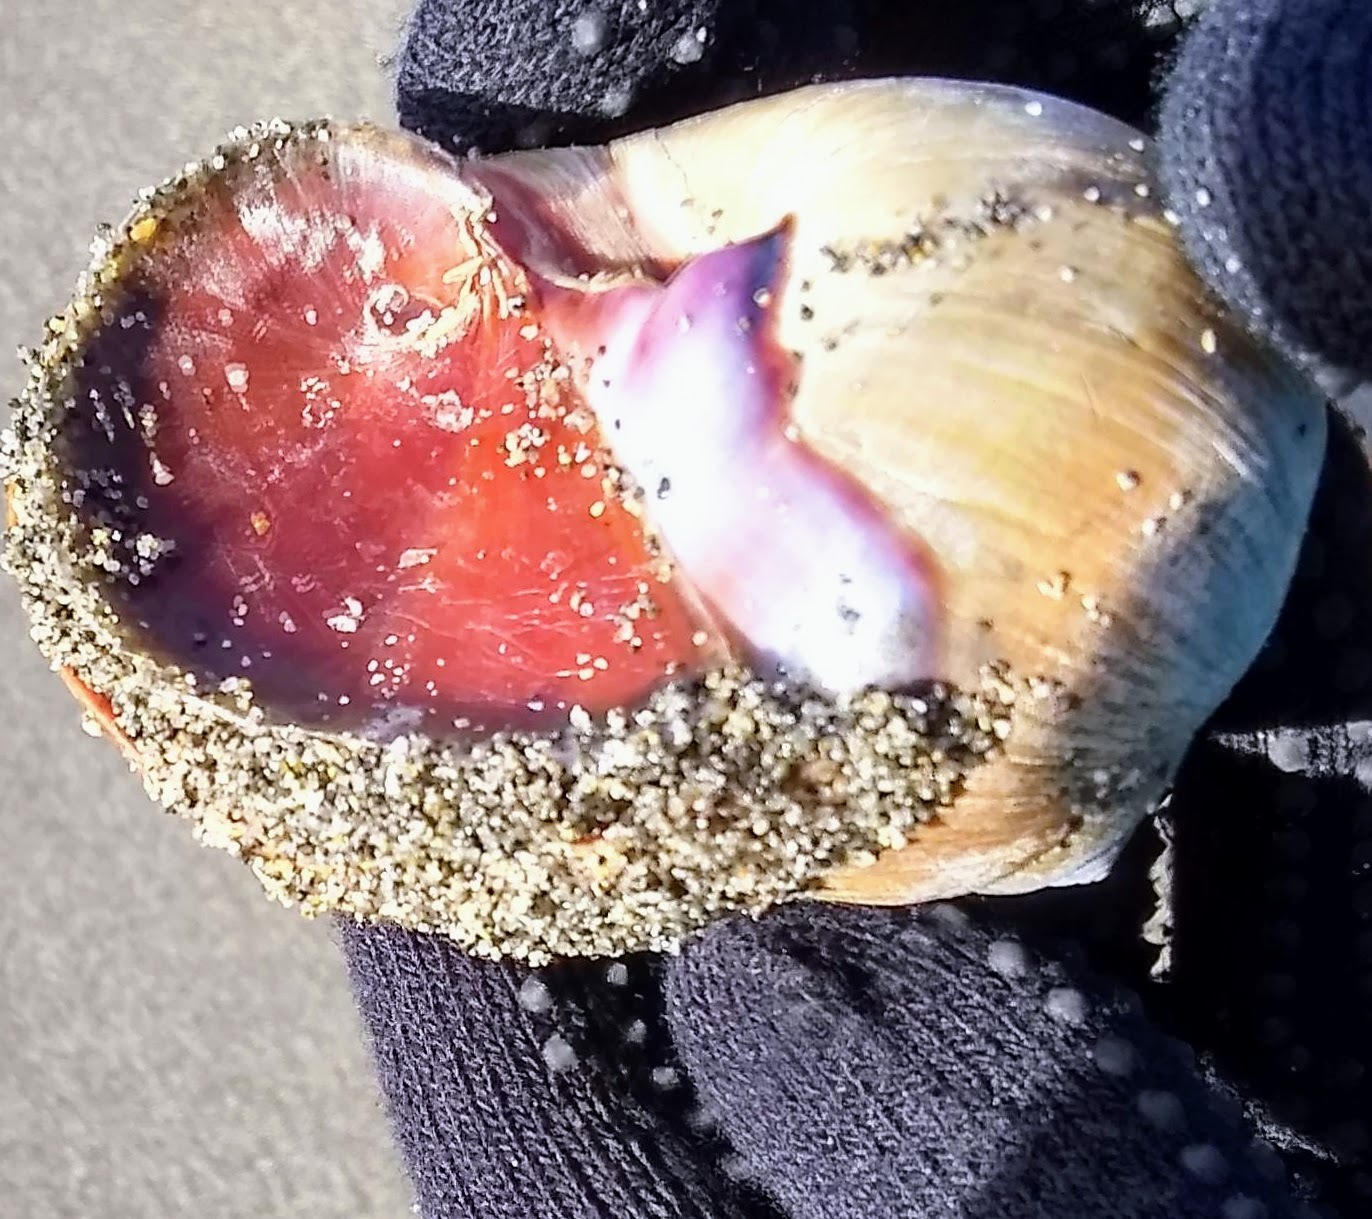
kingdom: Animalia
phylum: Mollusca
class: Gastropoda
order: Littorinimorpha
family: Naticidae
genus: Neverita
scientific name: Neverita lewisii
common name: Lewis' moonsnail
